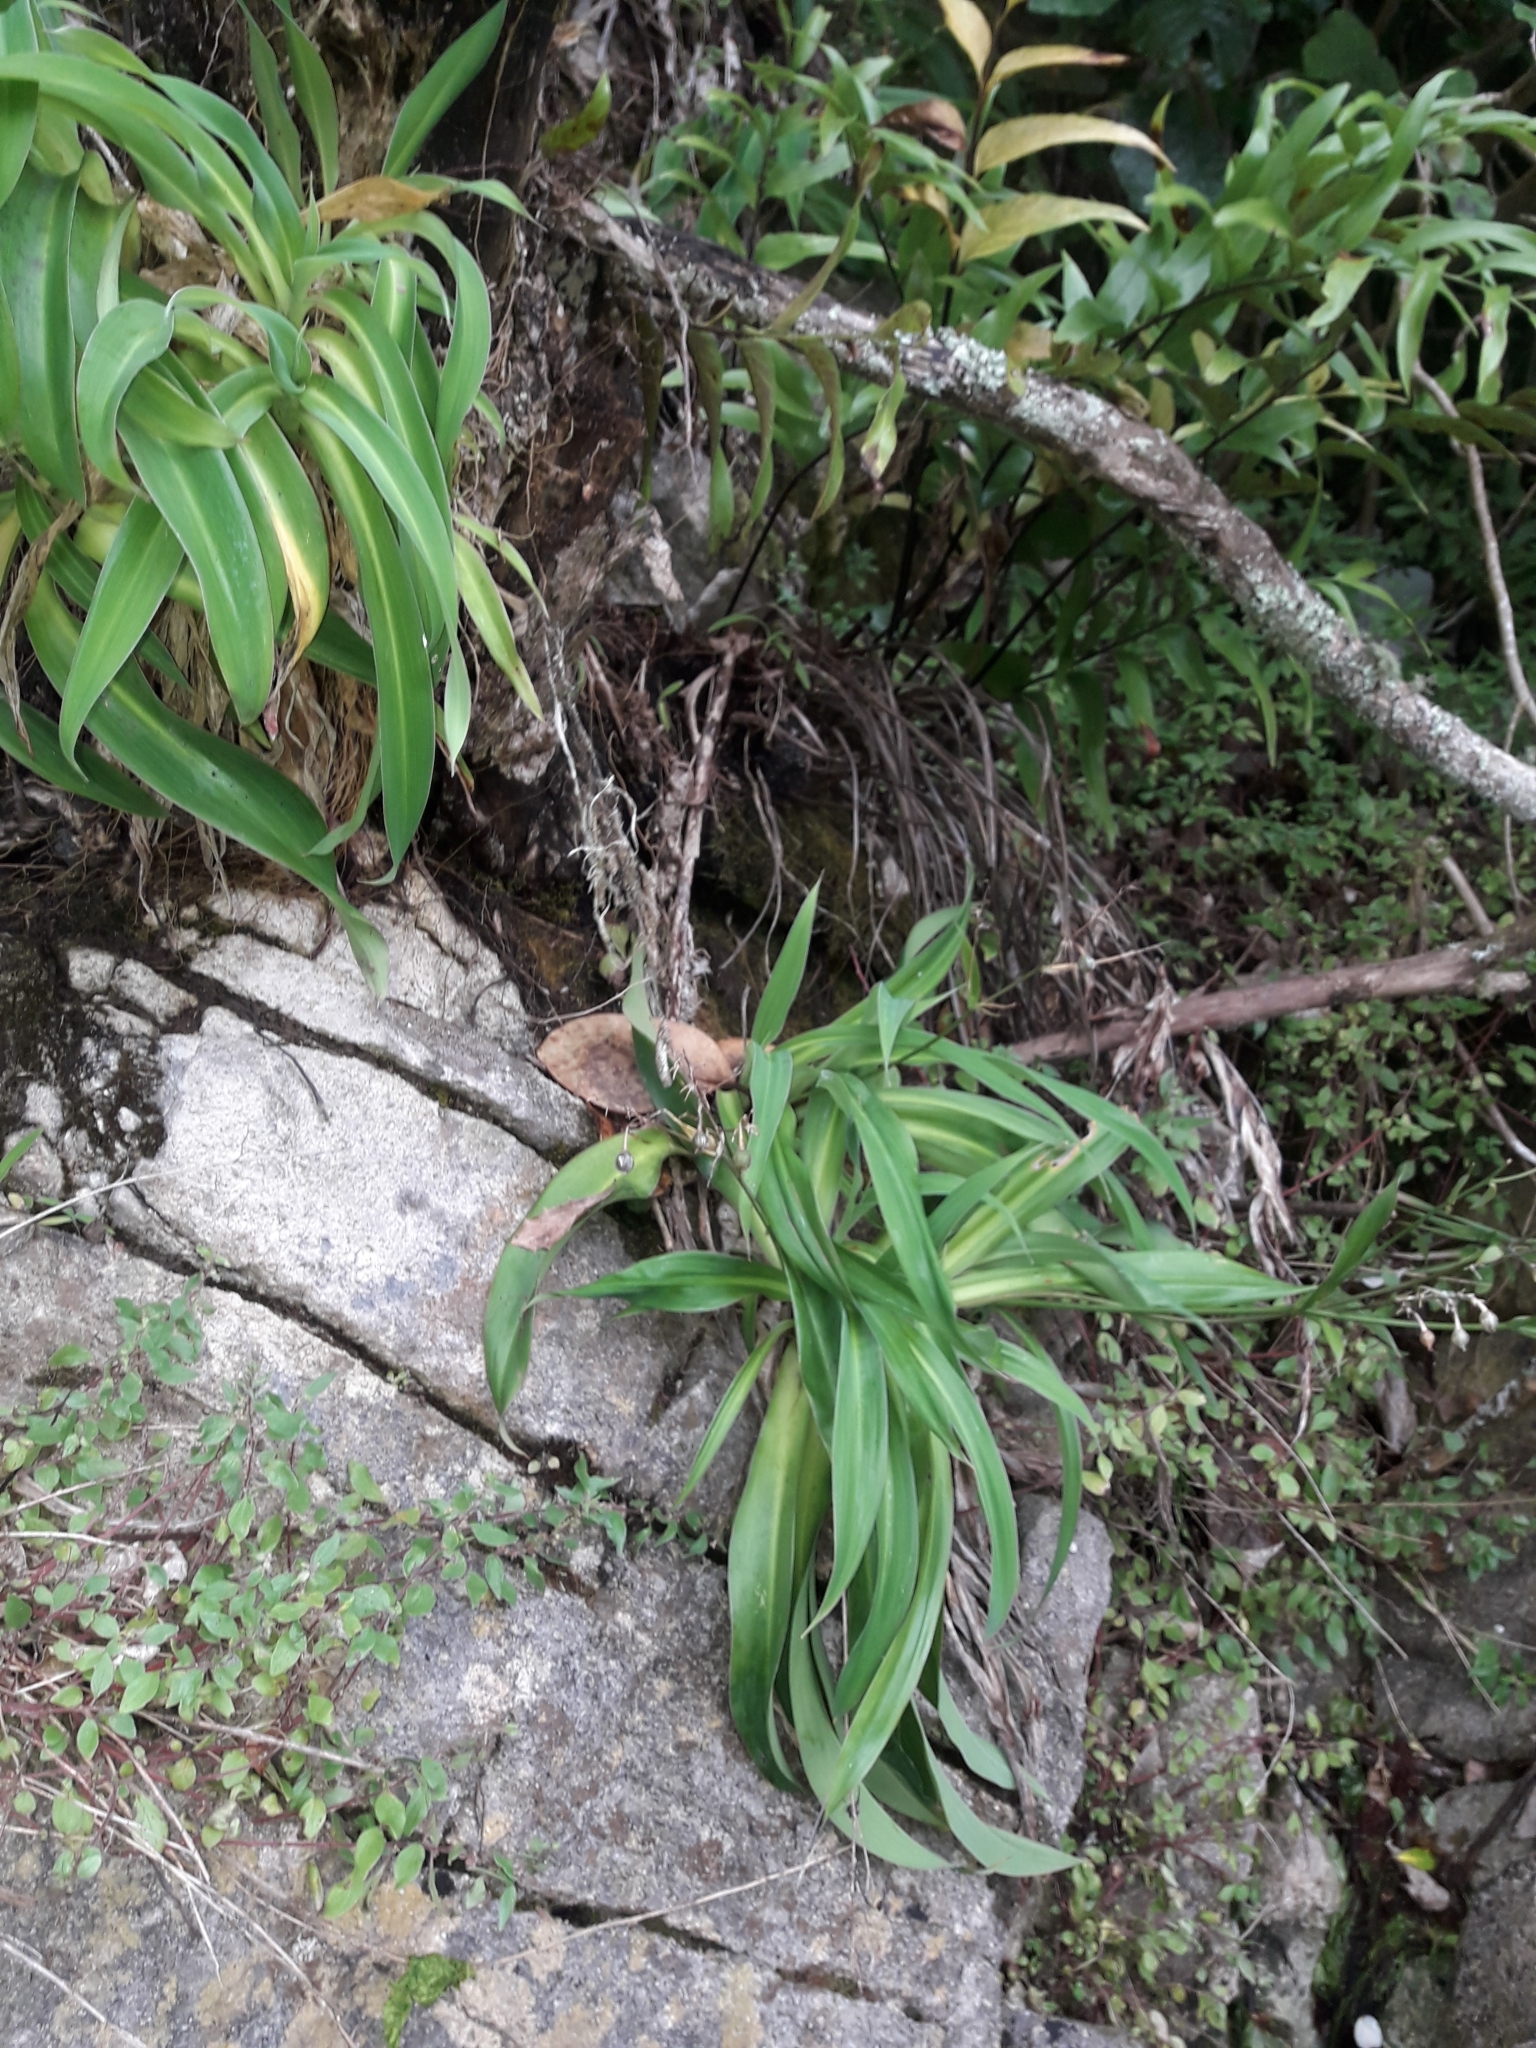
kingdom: Plantae
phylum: Tracheophyta
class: Liliopsida
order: Asparagales
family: Asparagaceae
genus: Arthropodium
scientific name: Arthropodium cirratum
